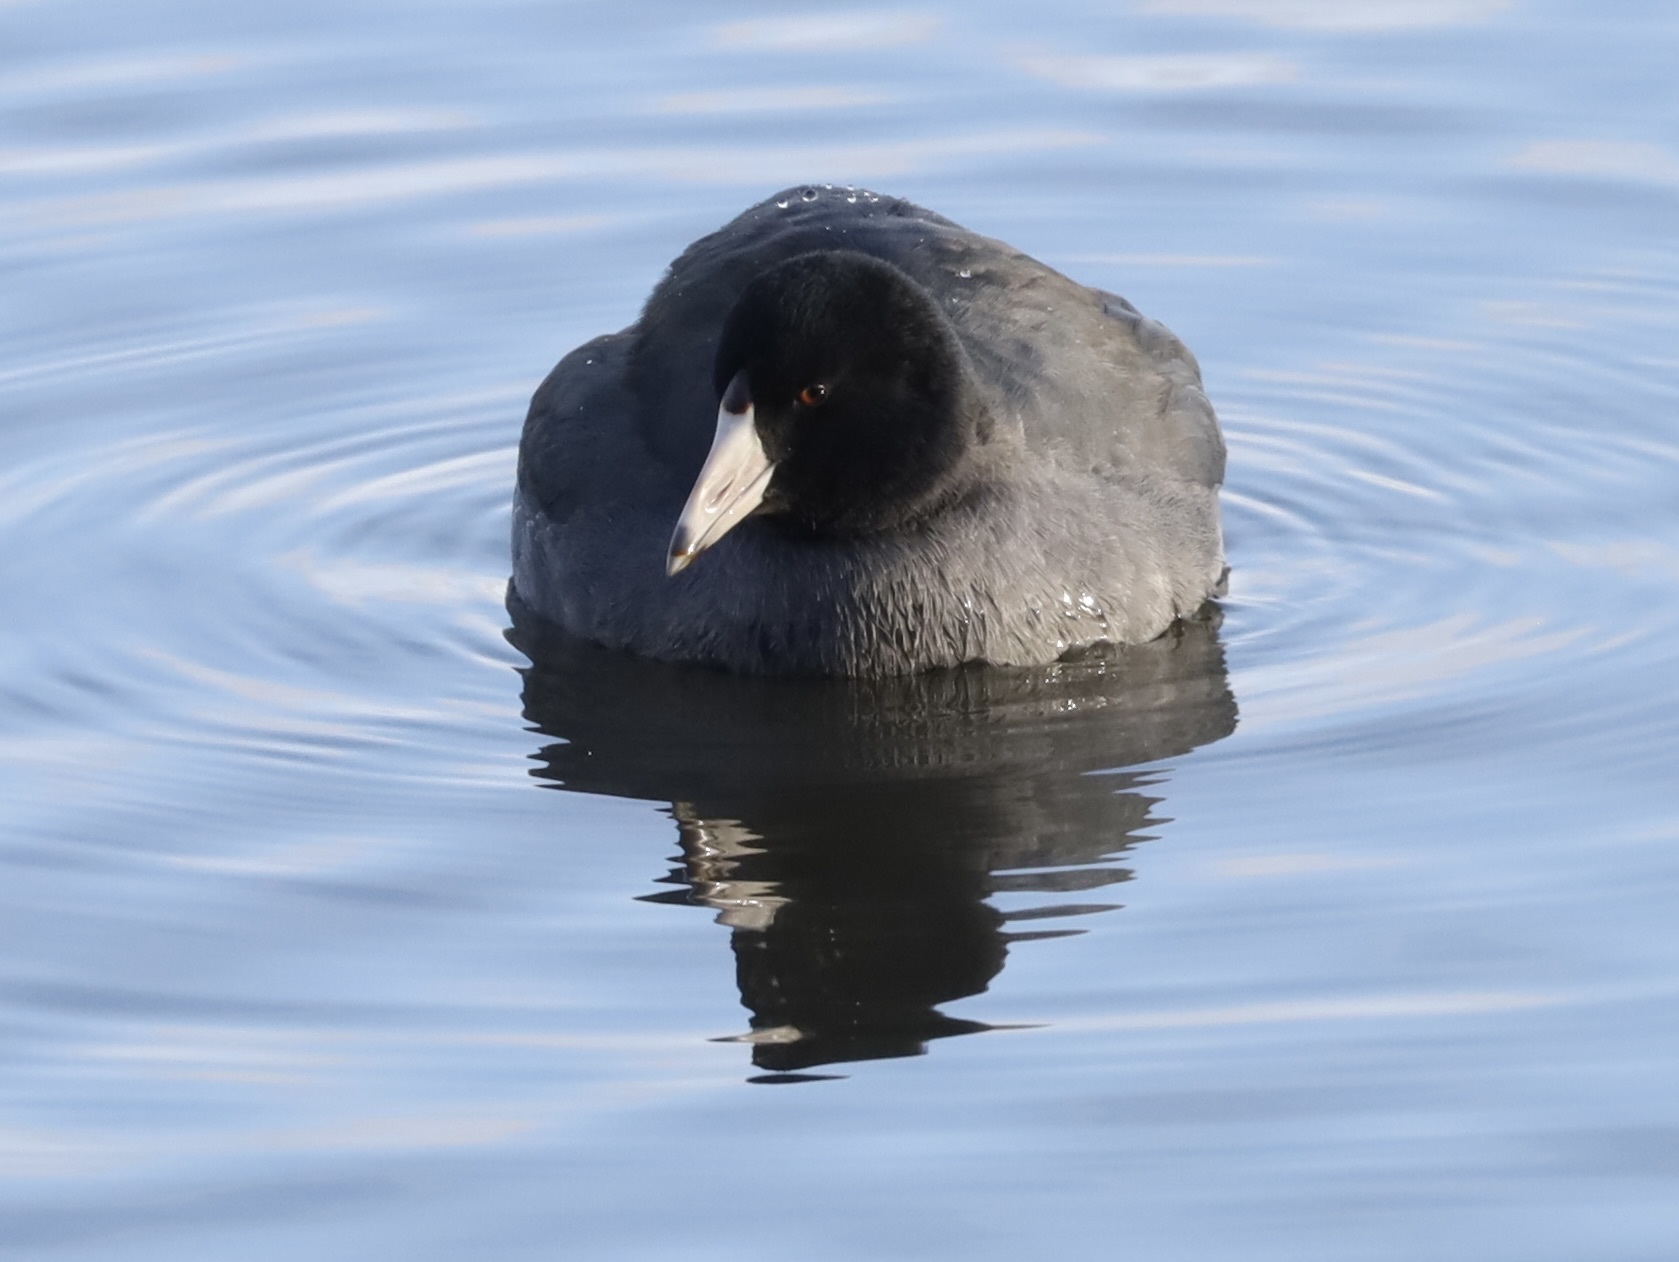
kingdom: Animalia
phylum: Chordata
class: Aves
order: Gruiformes
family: Rallidae
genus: Fulica
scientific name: Fulica americana
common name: American coot
